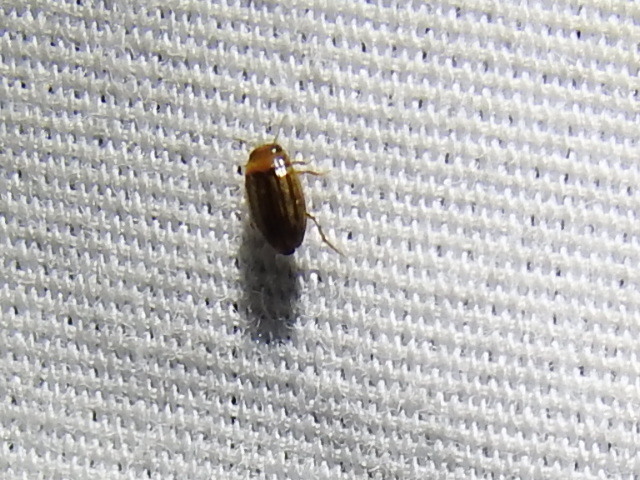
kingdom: Animalia
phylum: Arthropoda
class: Insecta
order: Coleoptera
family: Dytiscidae
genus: Neobidessus
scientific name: Neobidessus pullus
